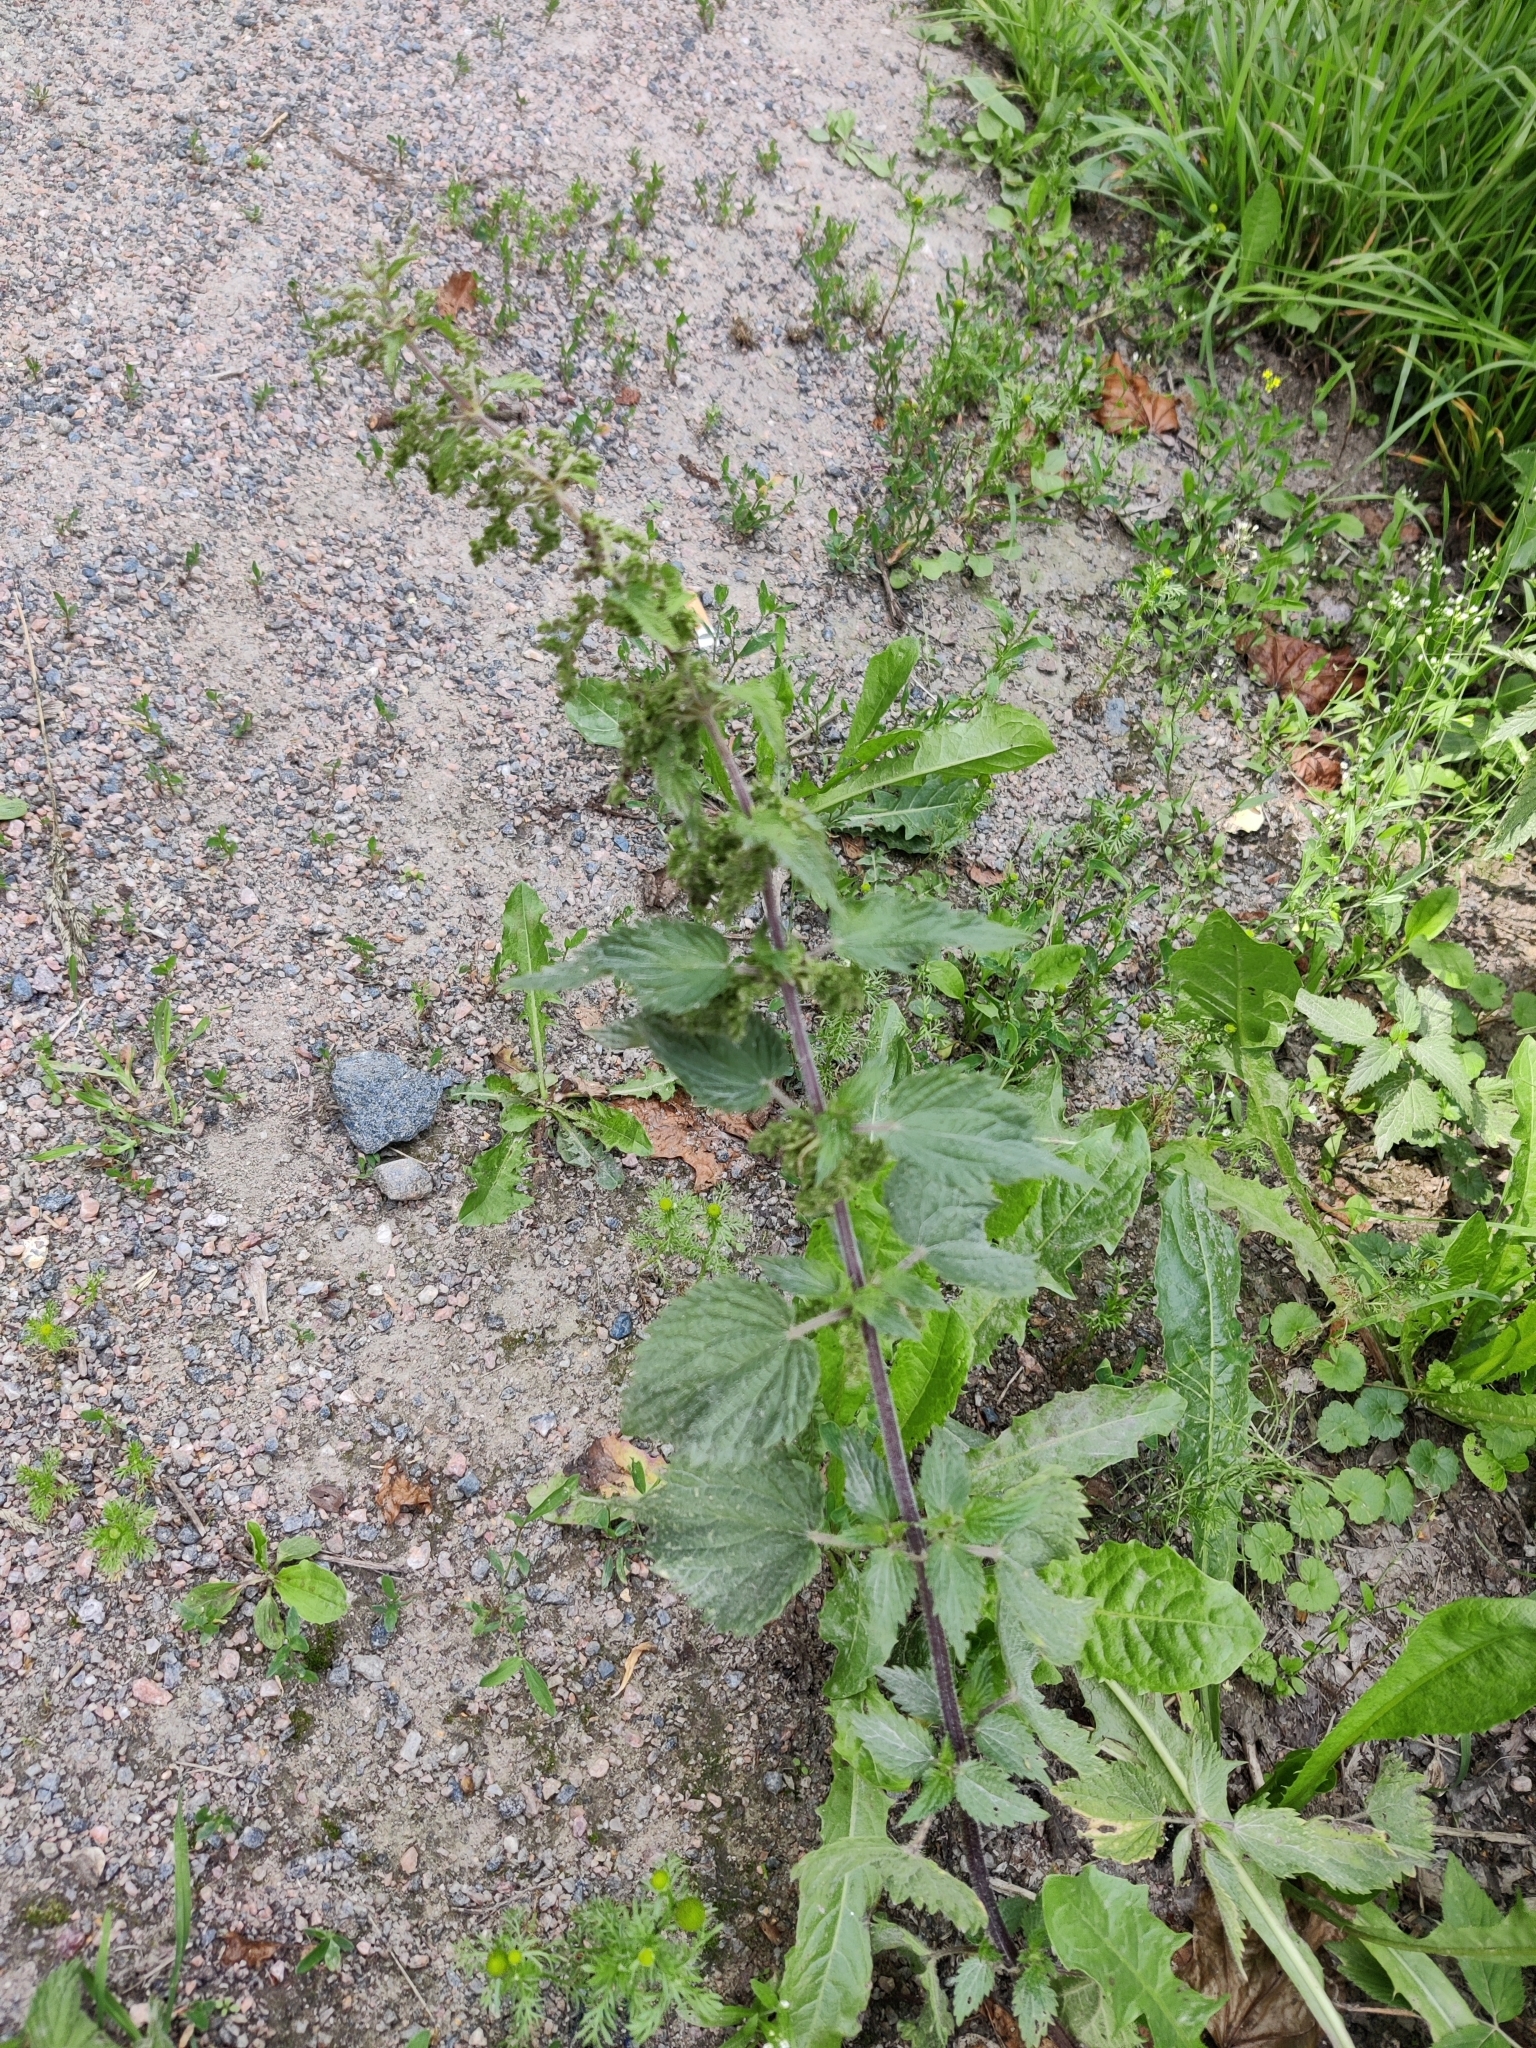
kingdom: Plantae
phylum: Tracheophyta
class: Magnoliopsida
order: Rosales
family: Urticaceae
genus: Urtica
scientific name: Urtica dioica
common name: Common nettle
